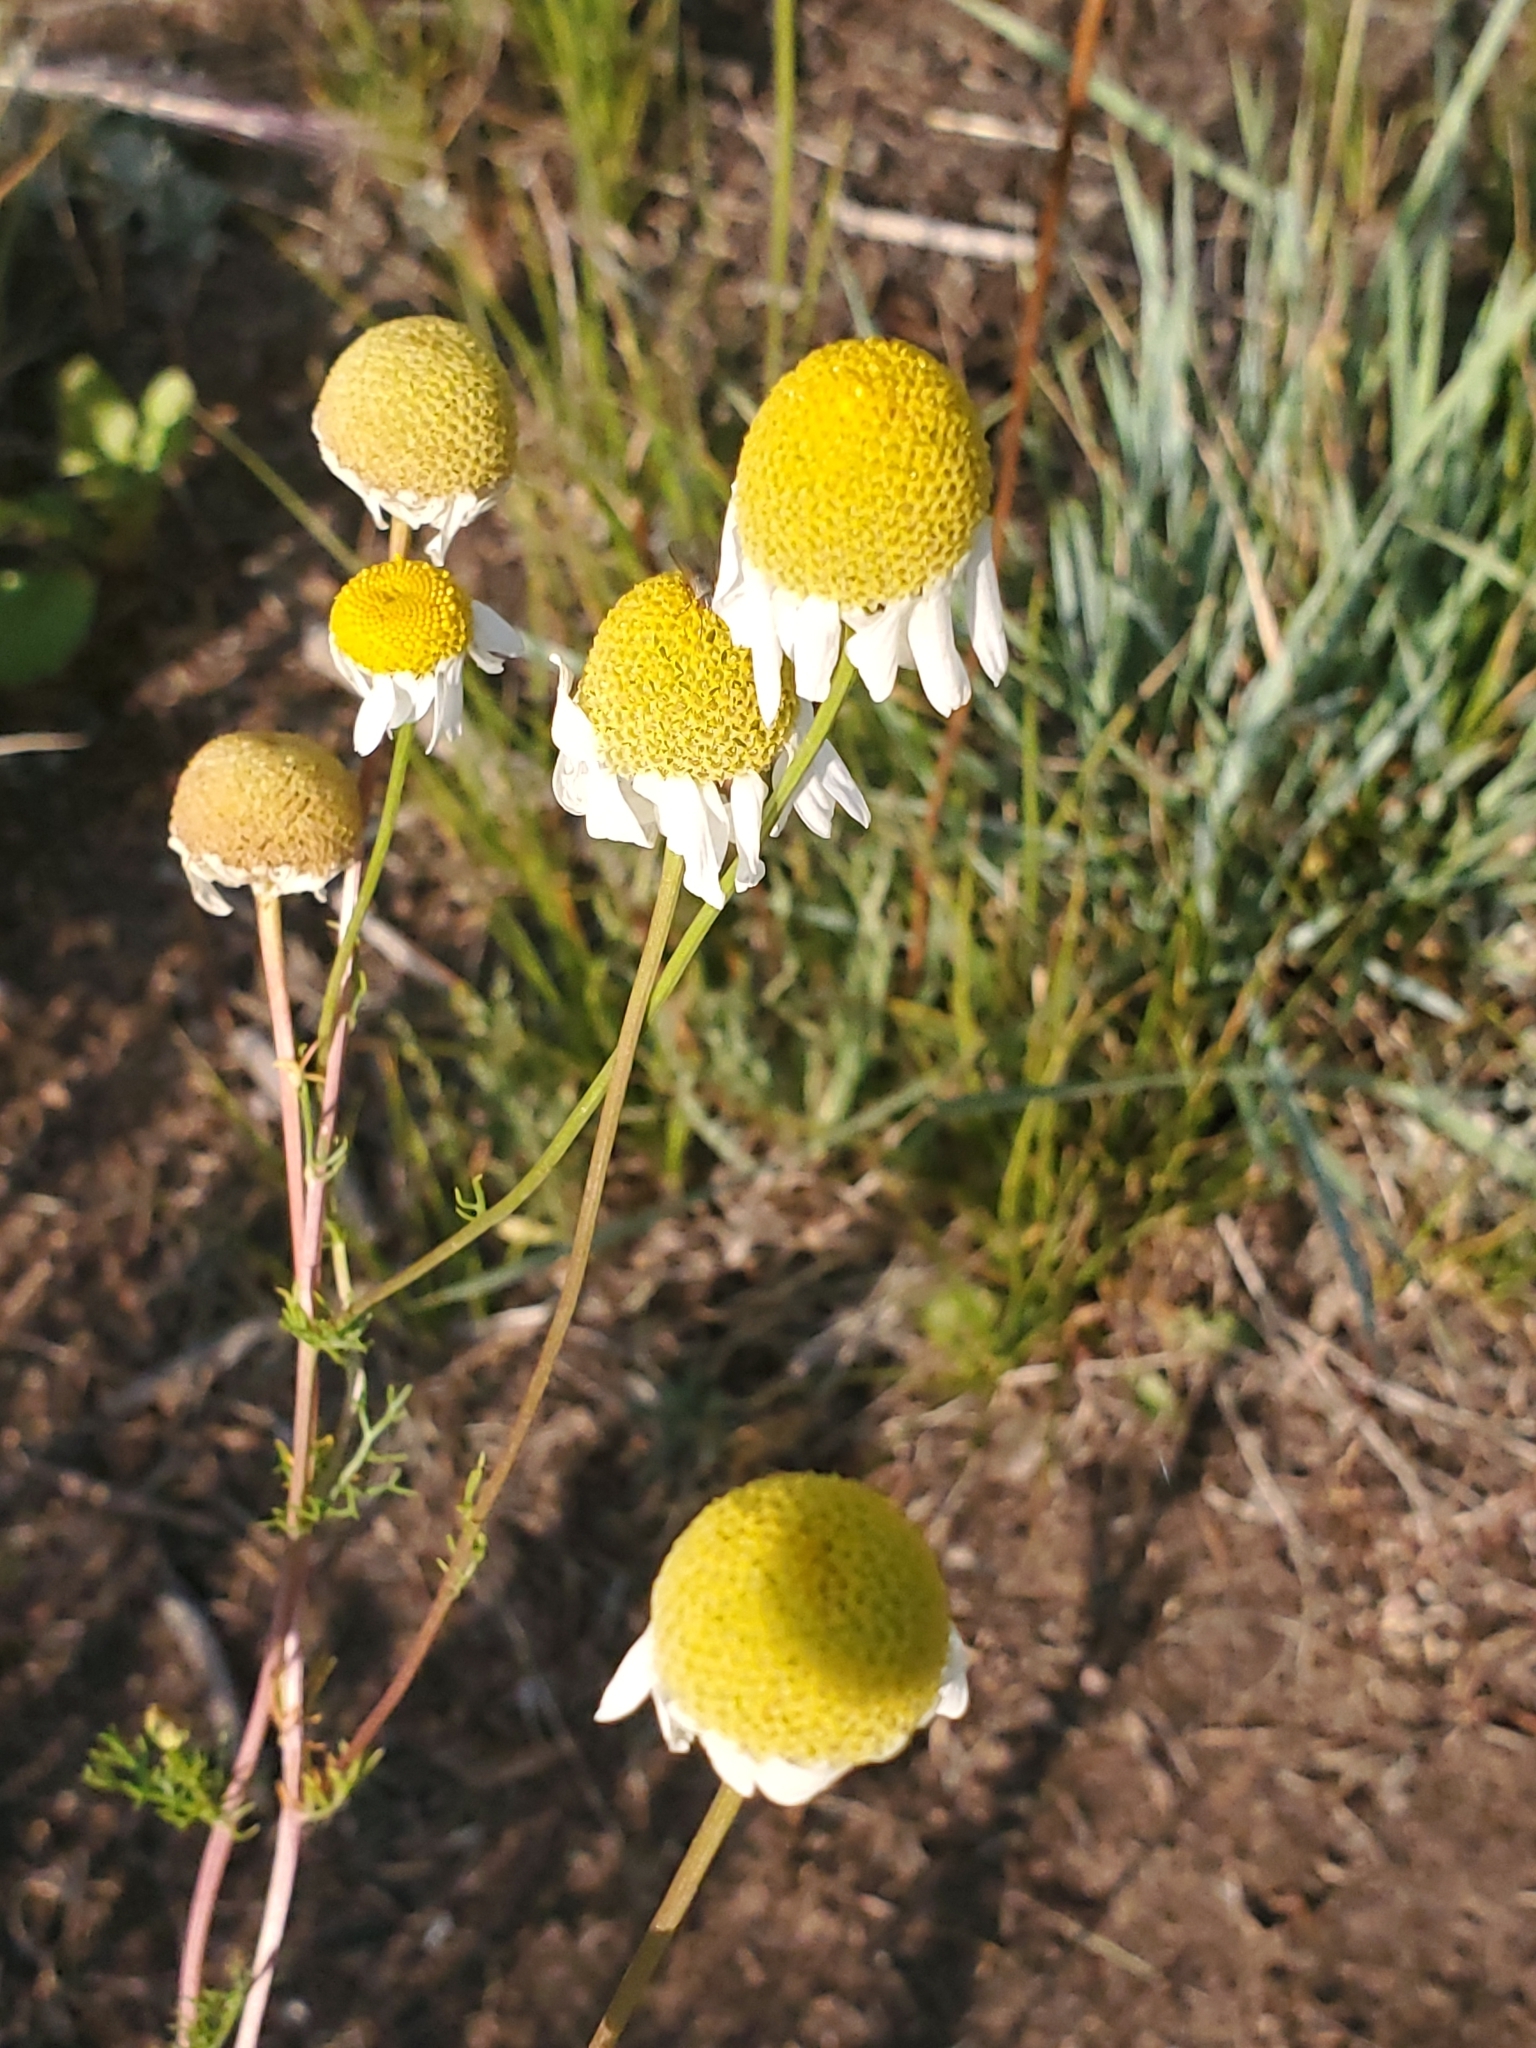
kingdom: Plantae
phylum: Tracheophyta
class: Magnoliopsida
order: Asterales
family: Asteraceae
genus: Tripleurospermum
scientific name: Tripleurospermum inodorum
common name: Scentless mayweed
